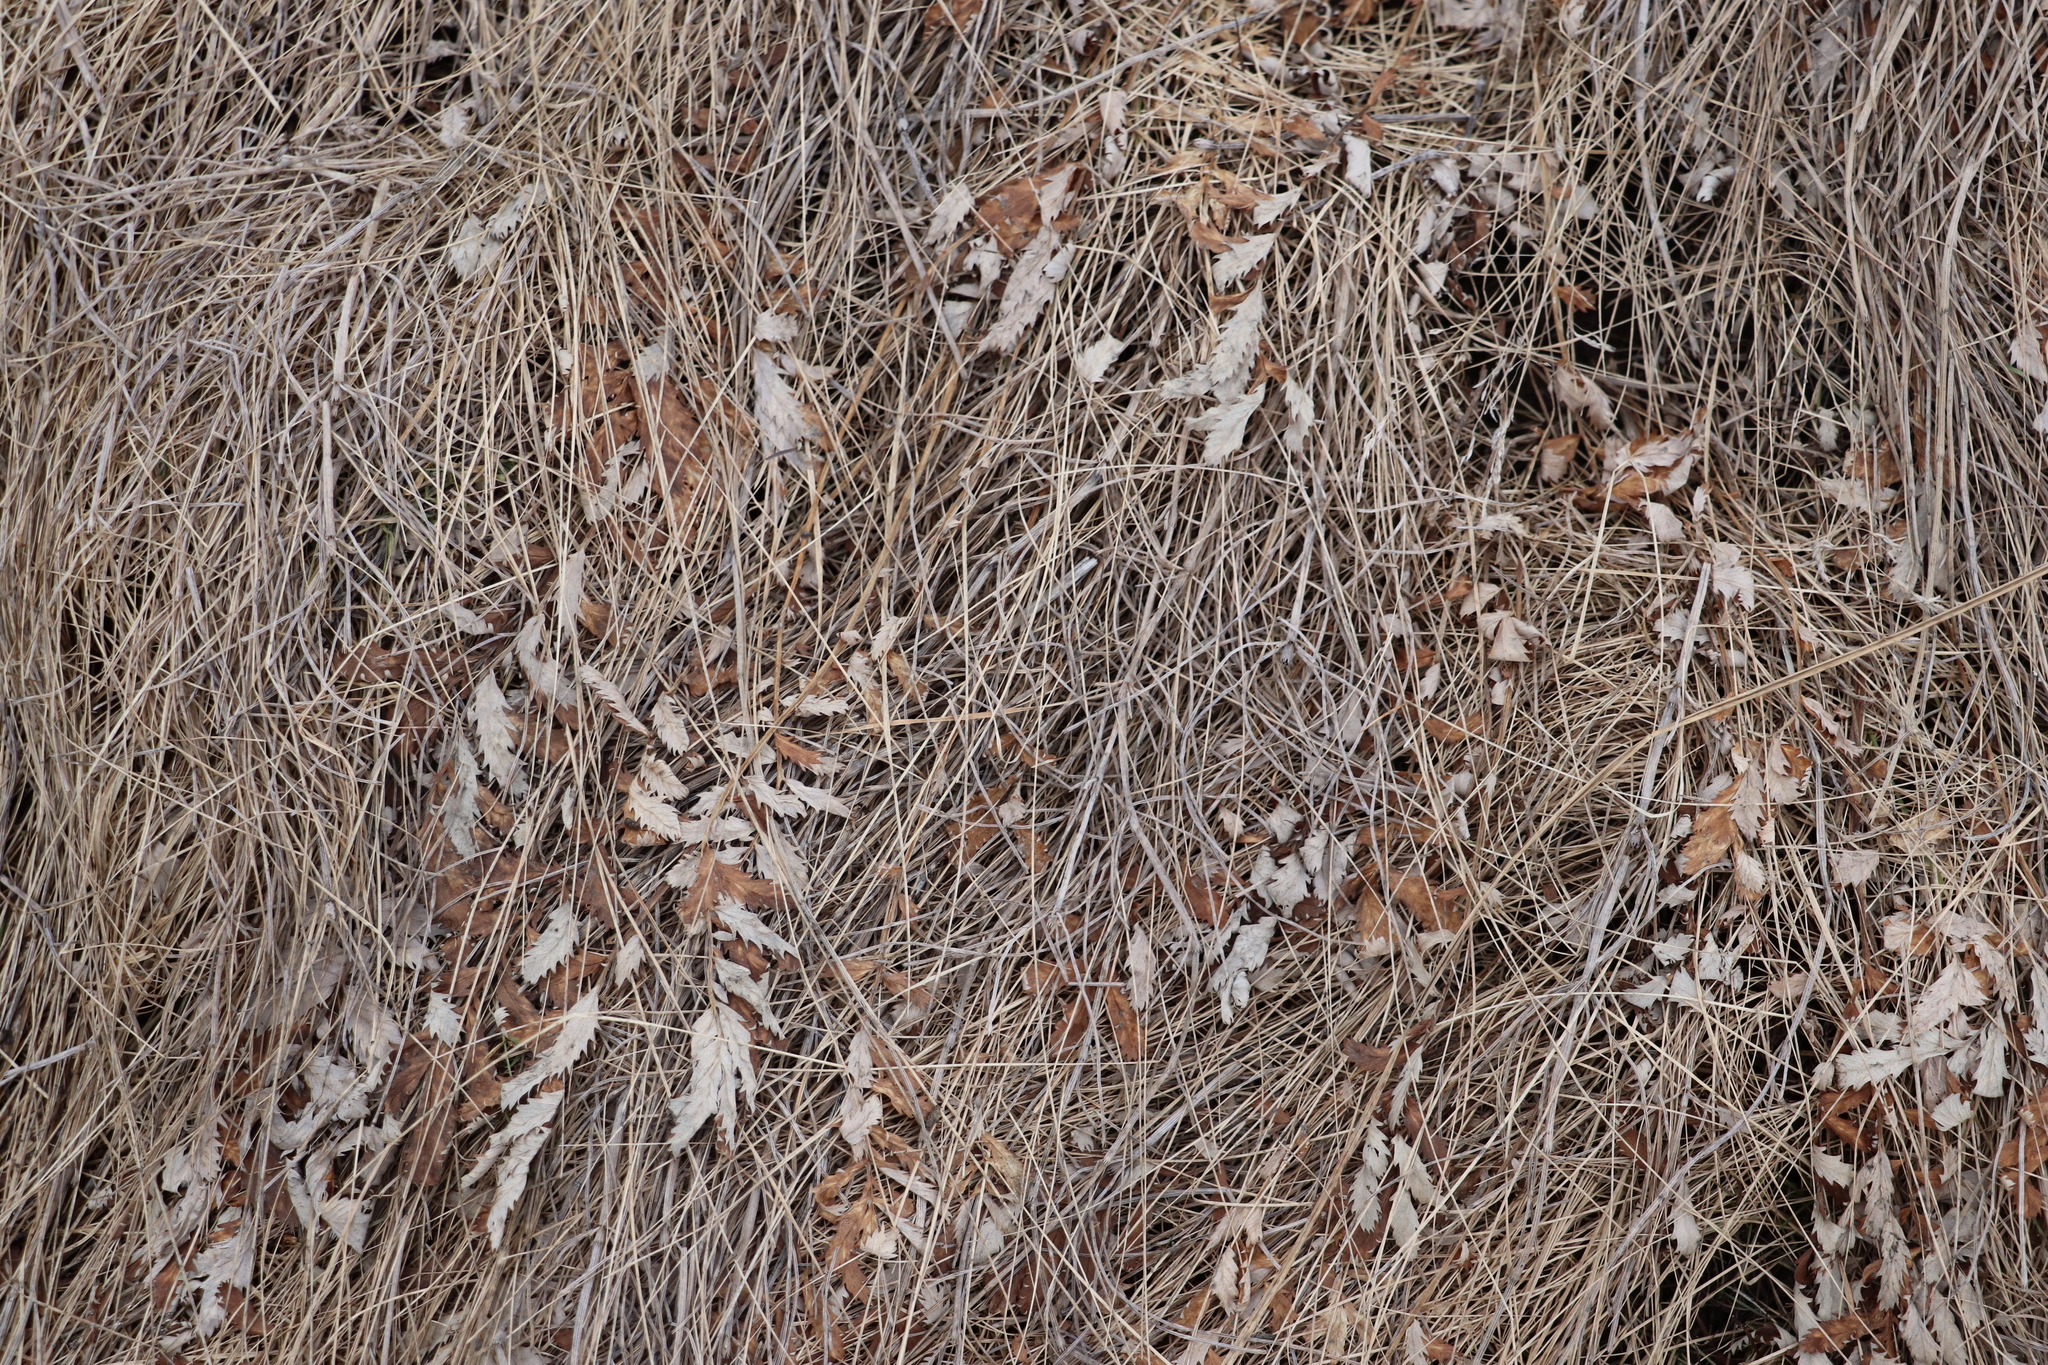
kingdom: Plantae
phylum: Tracheophyta
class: Magnoliopsida
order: Rosales
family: Rosaceae
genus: Argentina
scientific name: Argentina anserina
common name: Common silverweed
